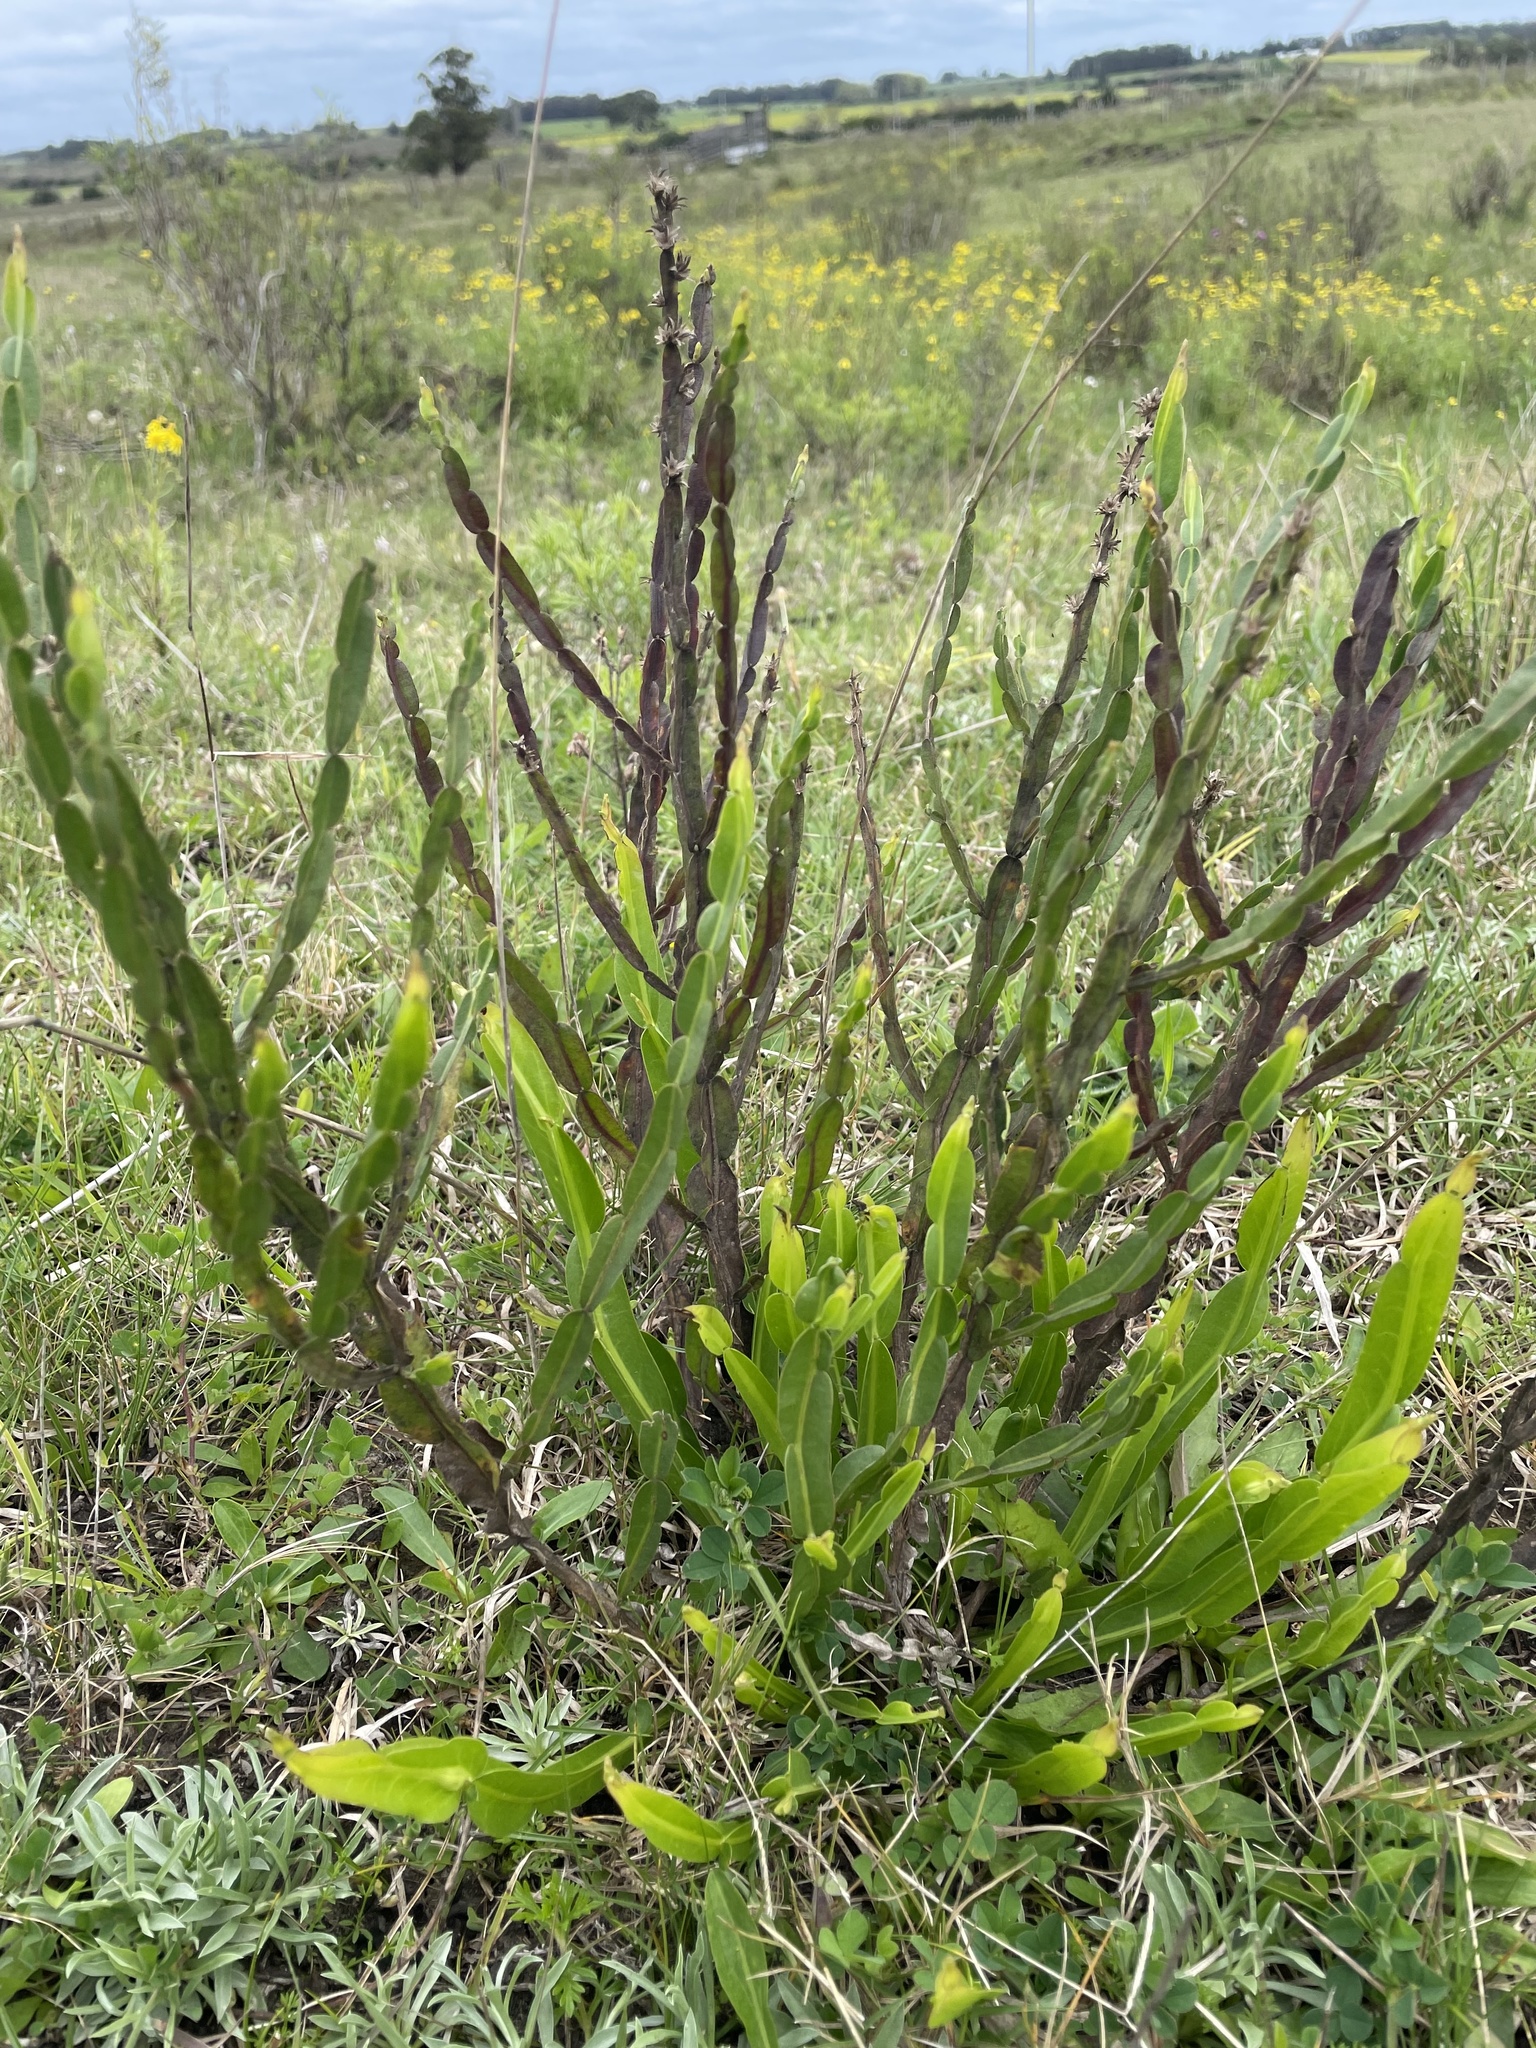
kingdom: Plantae
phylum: Tracheophyta
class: Magnoliopsida
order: Asterales
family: Asteraceae
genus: Baccharis
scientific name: Baccharis trimera
